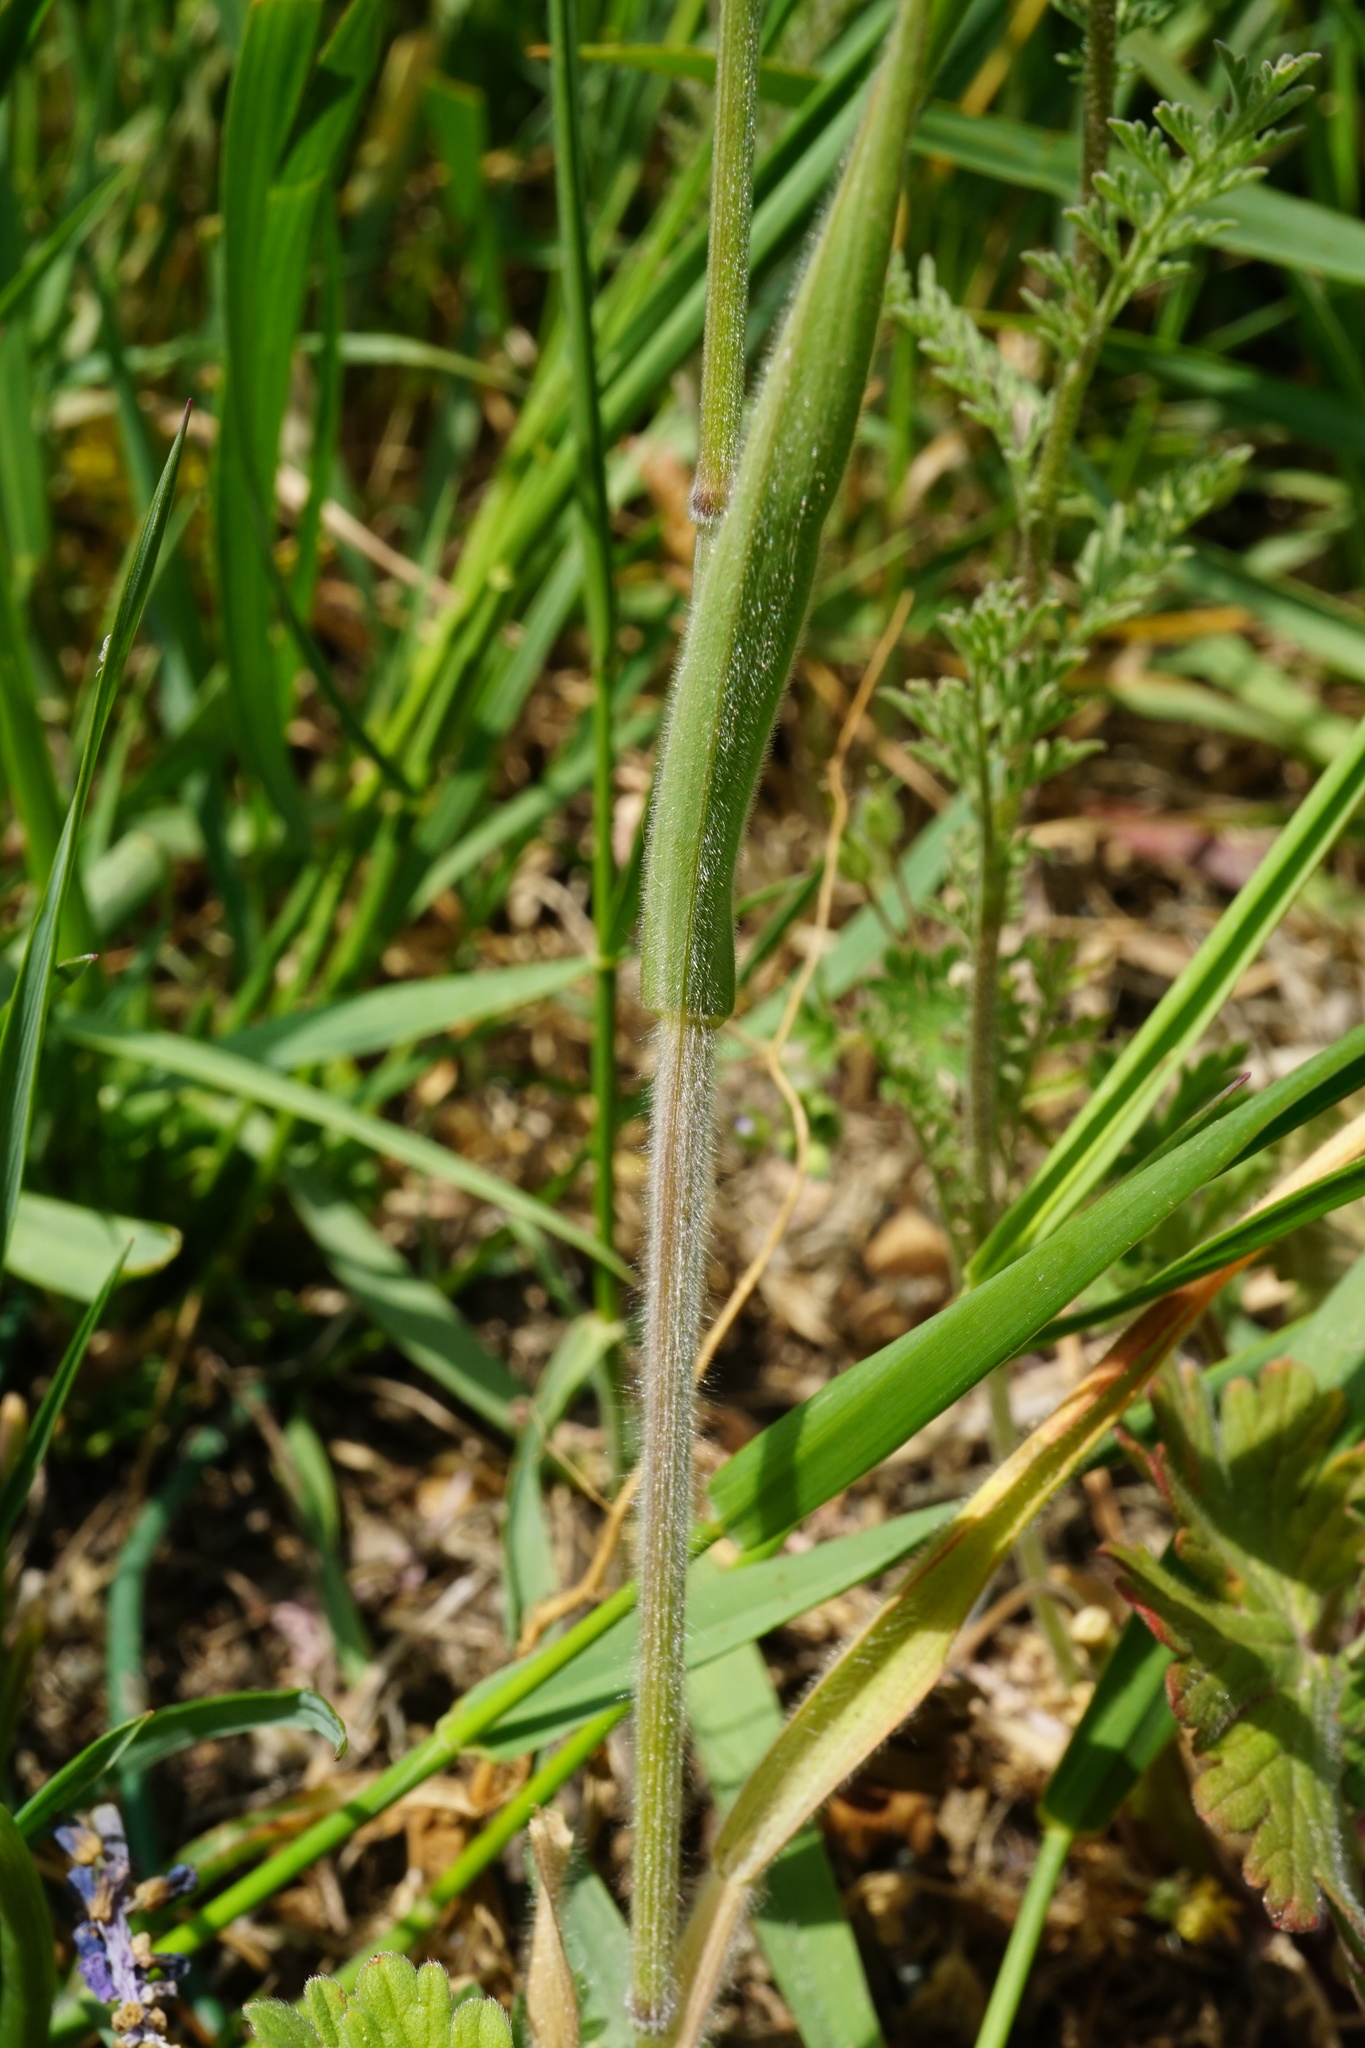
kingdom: Plantae
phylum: Tracheophyta
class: Liliopsida
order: Poales
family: Poaceae
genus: Bromus
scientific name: Bromus hordeaceus
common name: Soft brome
